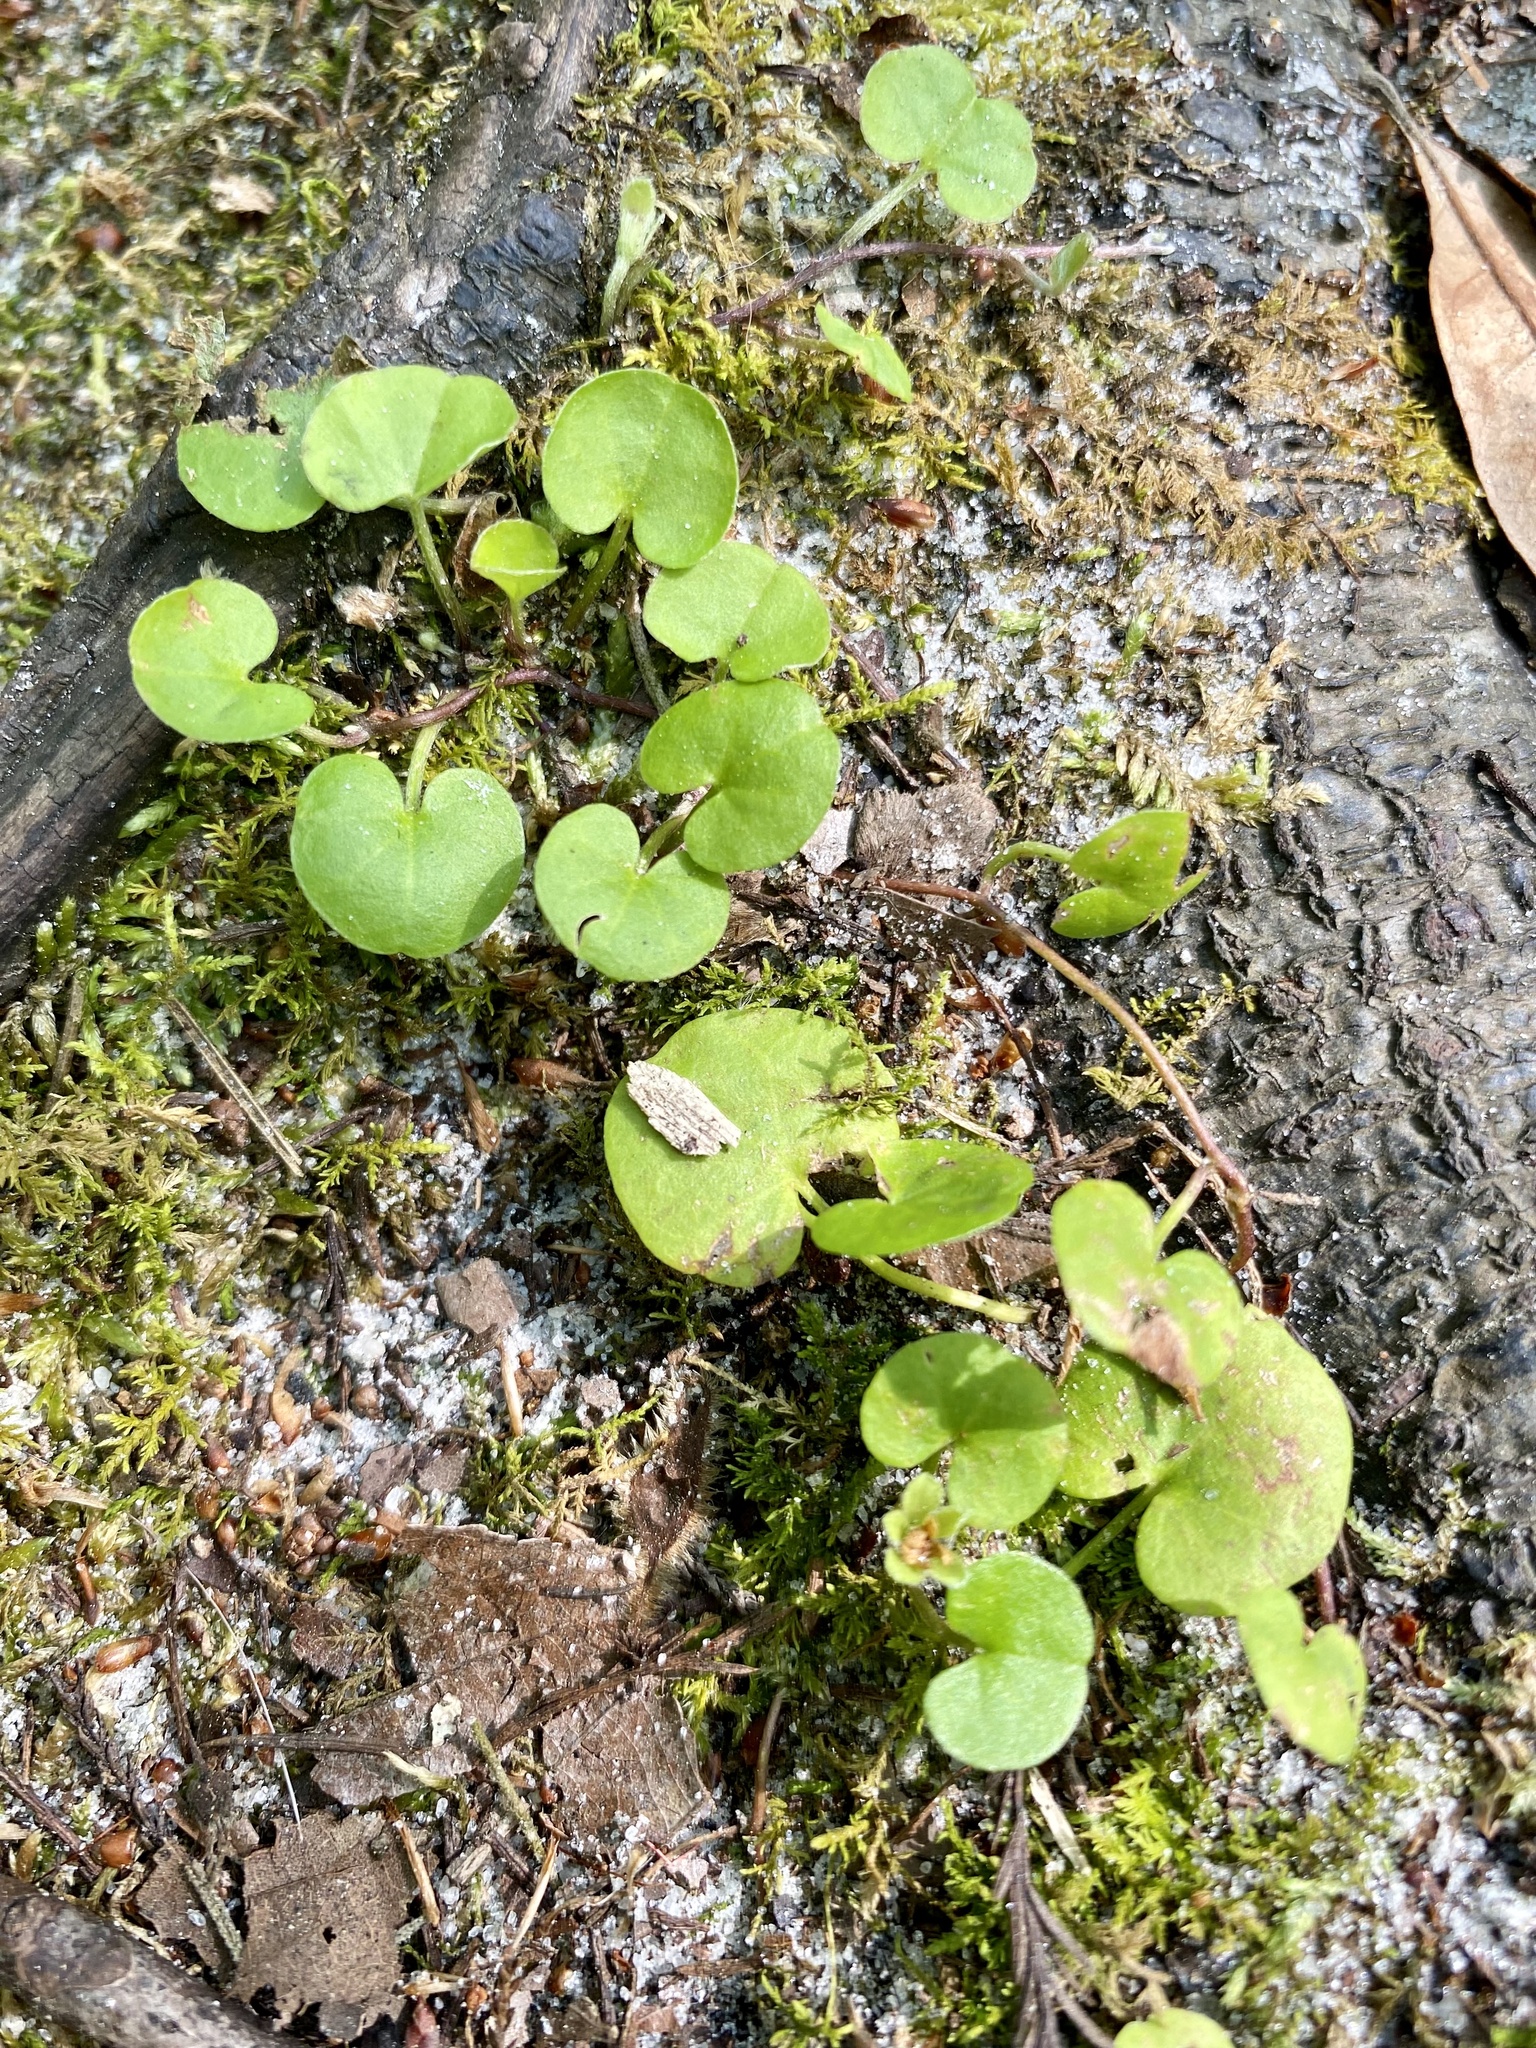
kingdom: Plantae
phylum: Tracheophyta
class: Magnoliopsida
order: Solanales
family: Convolvulaceae
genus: Dichondra
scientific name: Dichondra carolinensis
